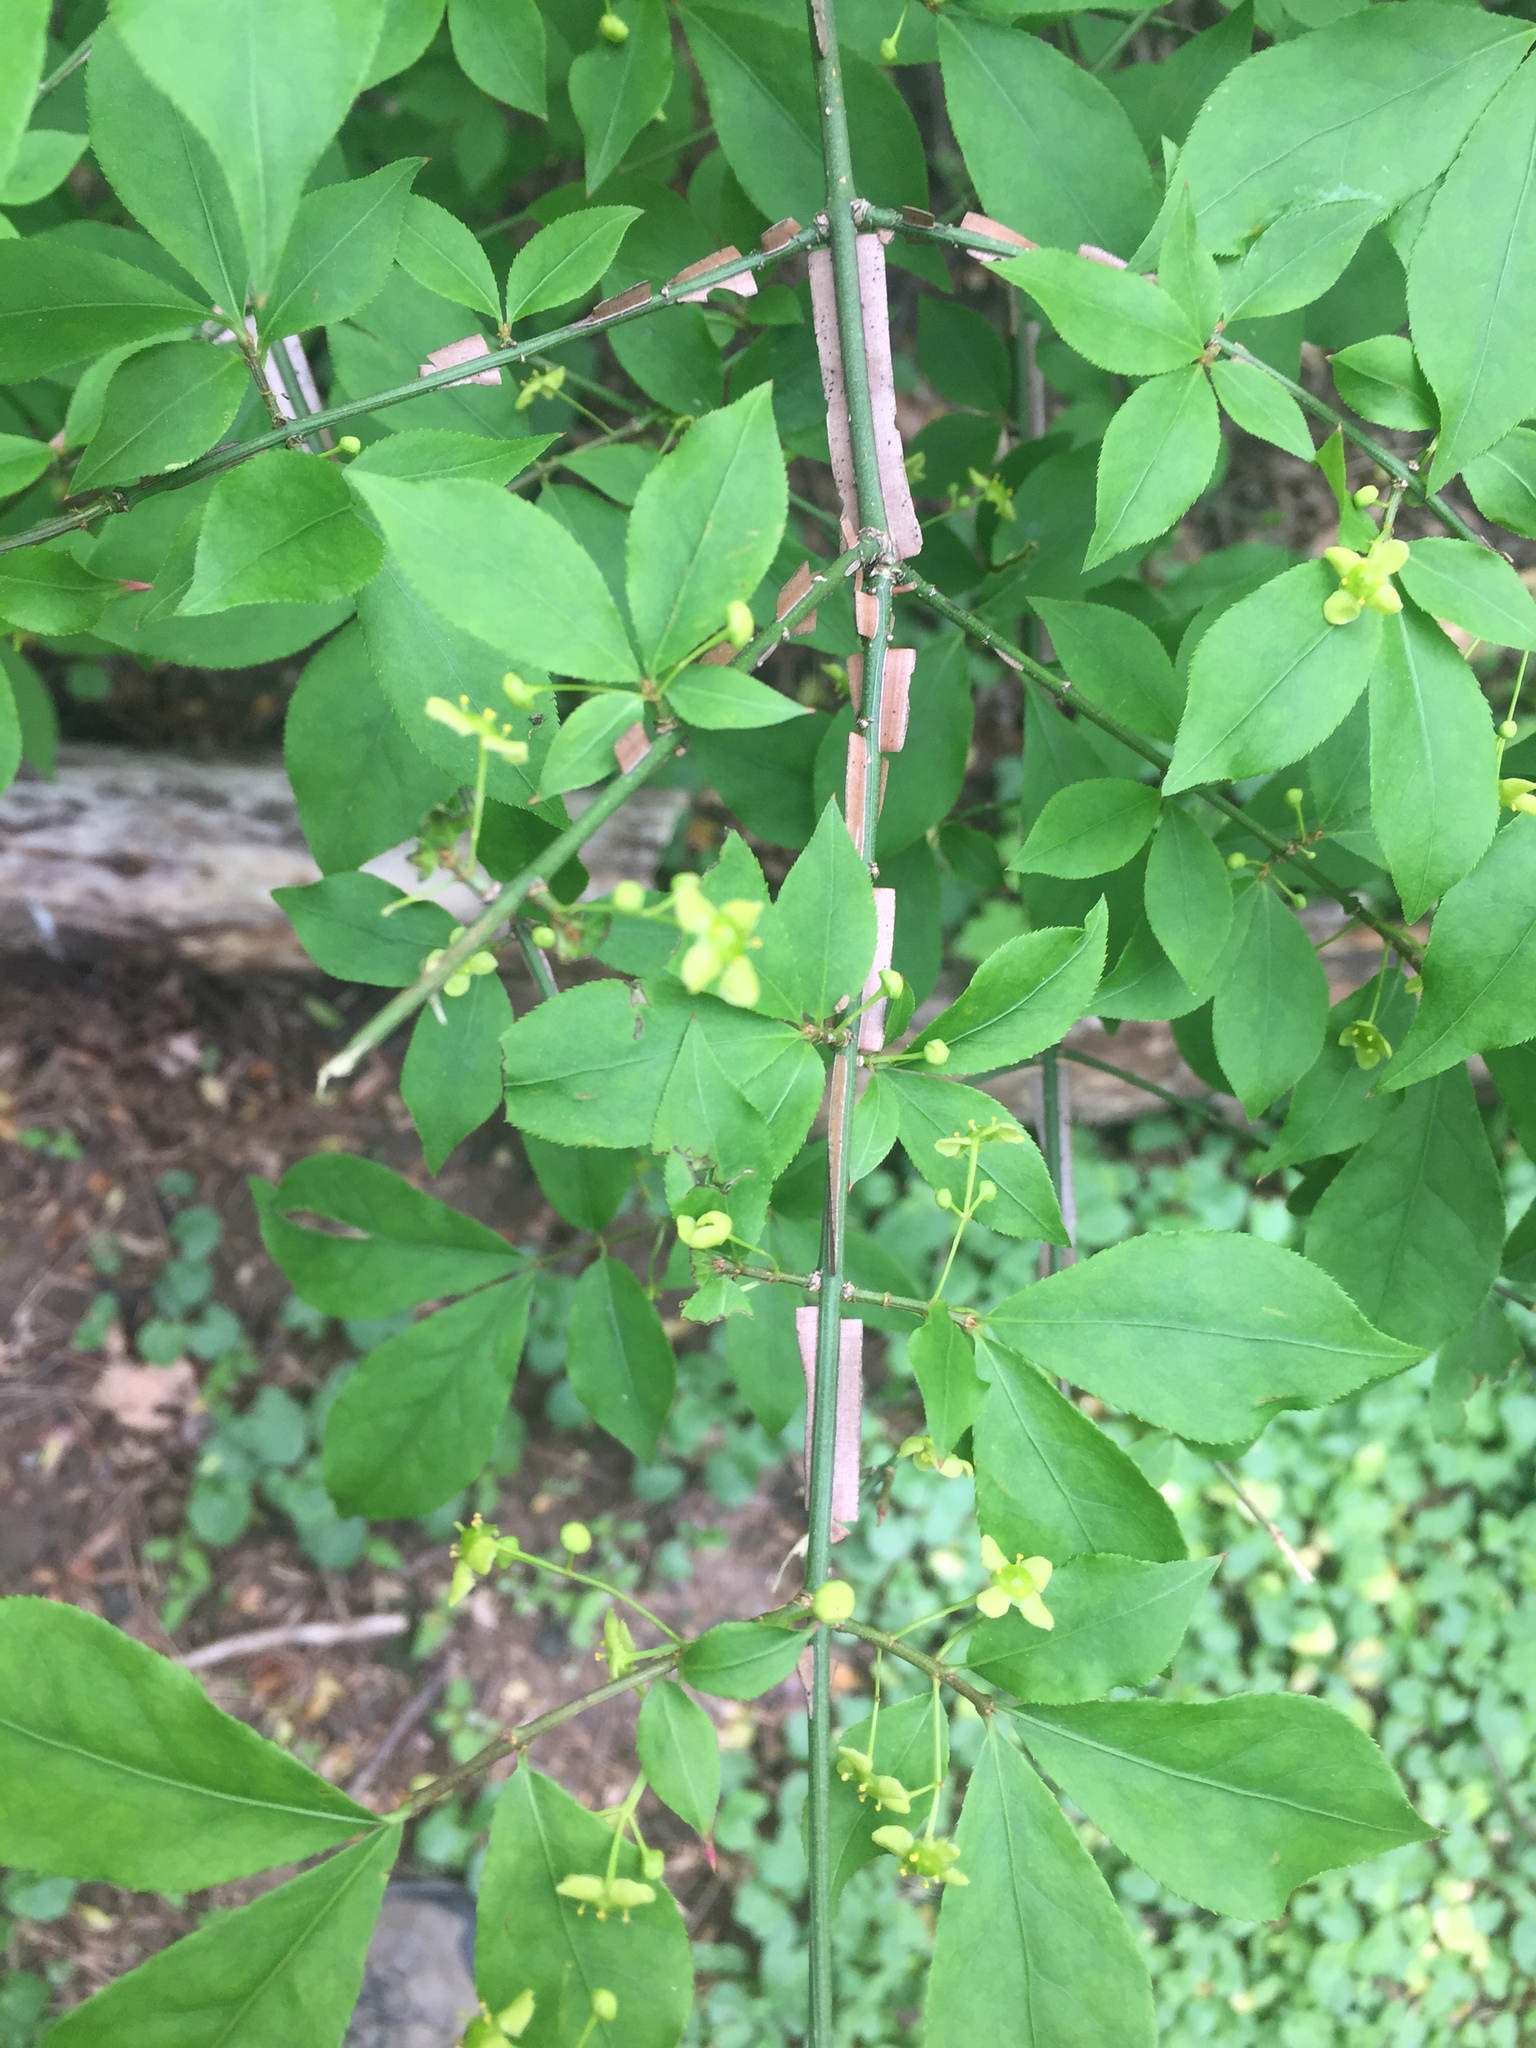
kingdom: Plantae
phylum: Tracheophyta
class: Magnoliopsida
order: Celastrales
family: Celastraceae
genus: Euonymus
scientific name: Euonymus alatus
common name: Winged euonymus
